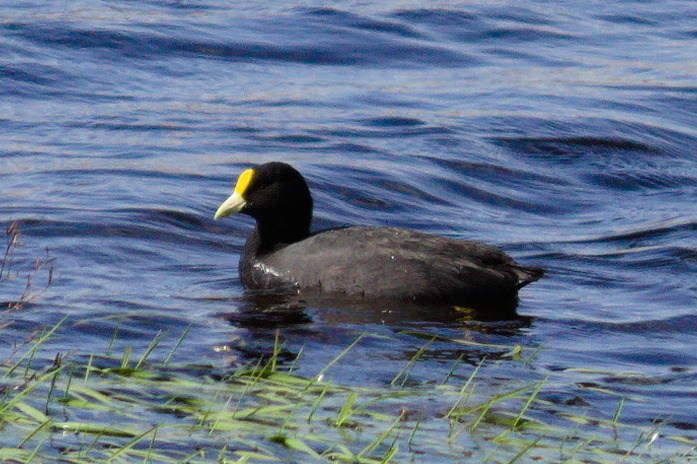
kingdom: Animalia
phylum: Chordata
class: Aves
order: Gruiformes
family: Rallidae
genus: Fulica
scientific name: Fulica leucoptera
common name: White-winged coot
